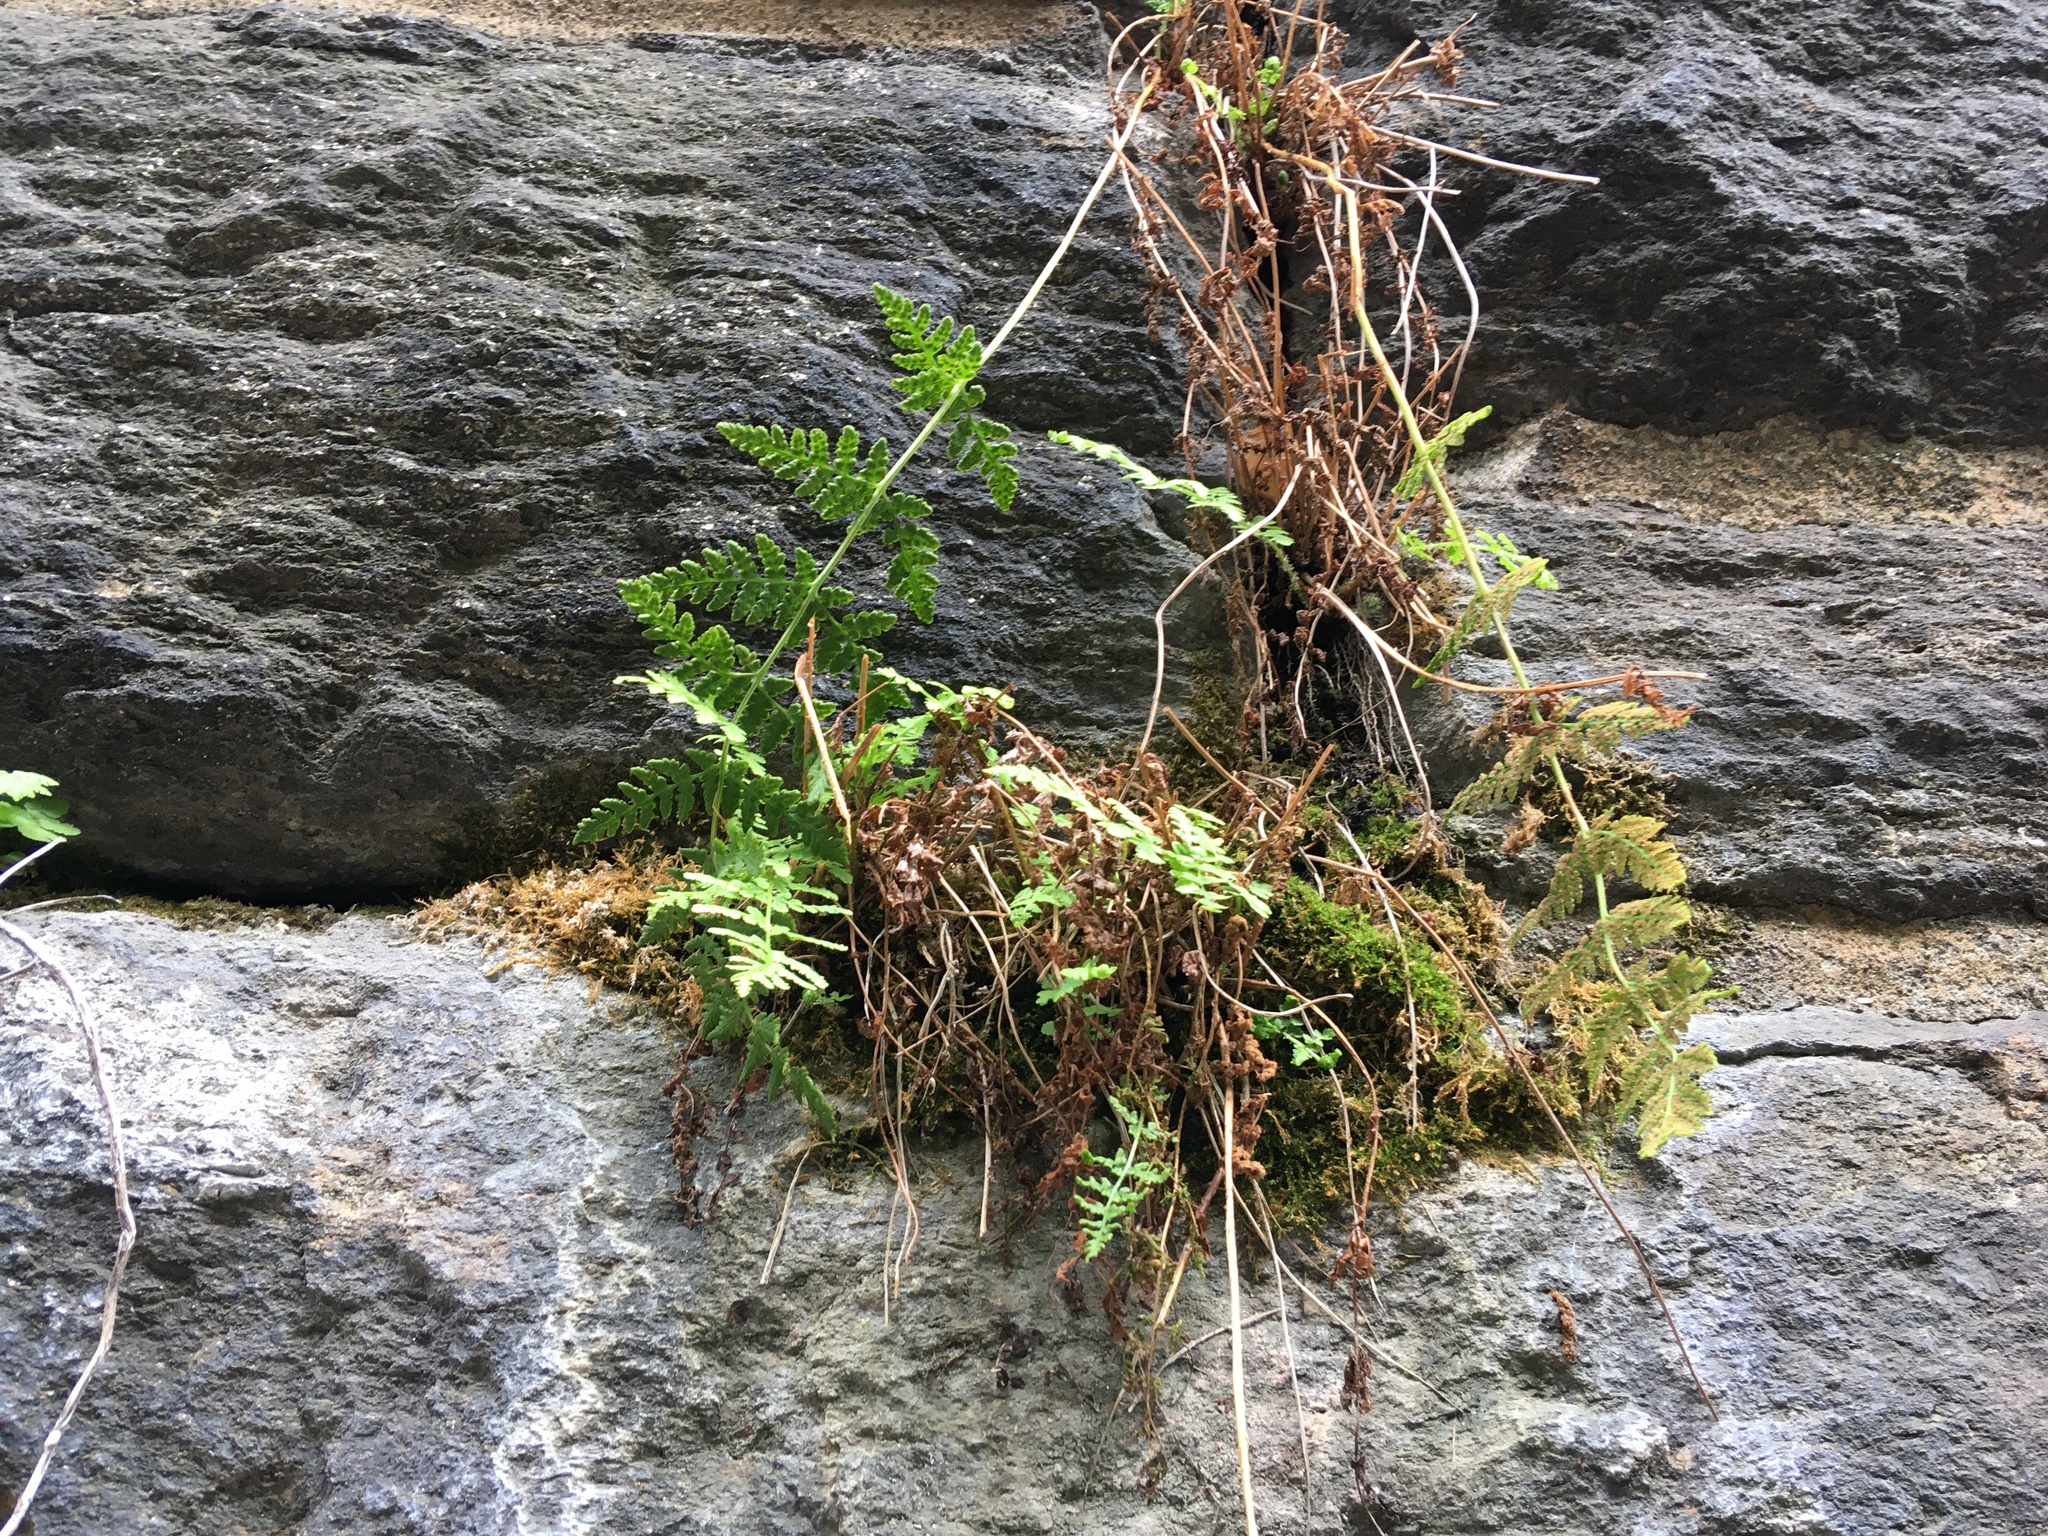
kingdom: Plantae
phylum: Tracheophyta
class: Polypodiopsida
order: Polypodiales
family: Woodsiaceae
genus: Physematium
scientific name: Physematium obtusum
